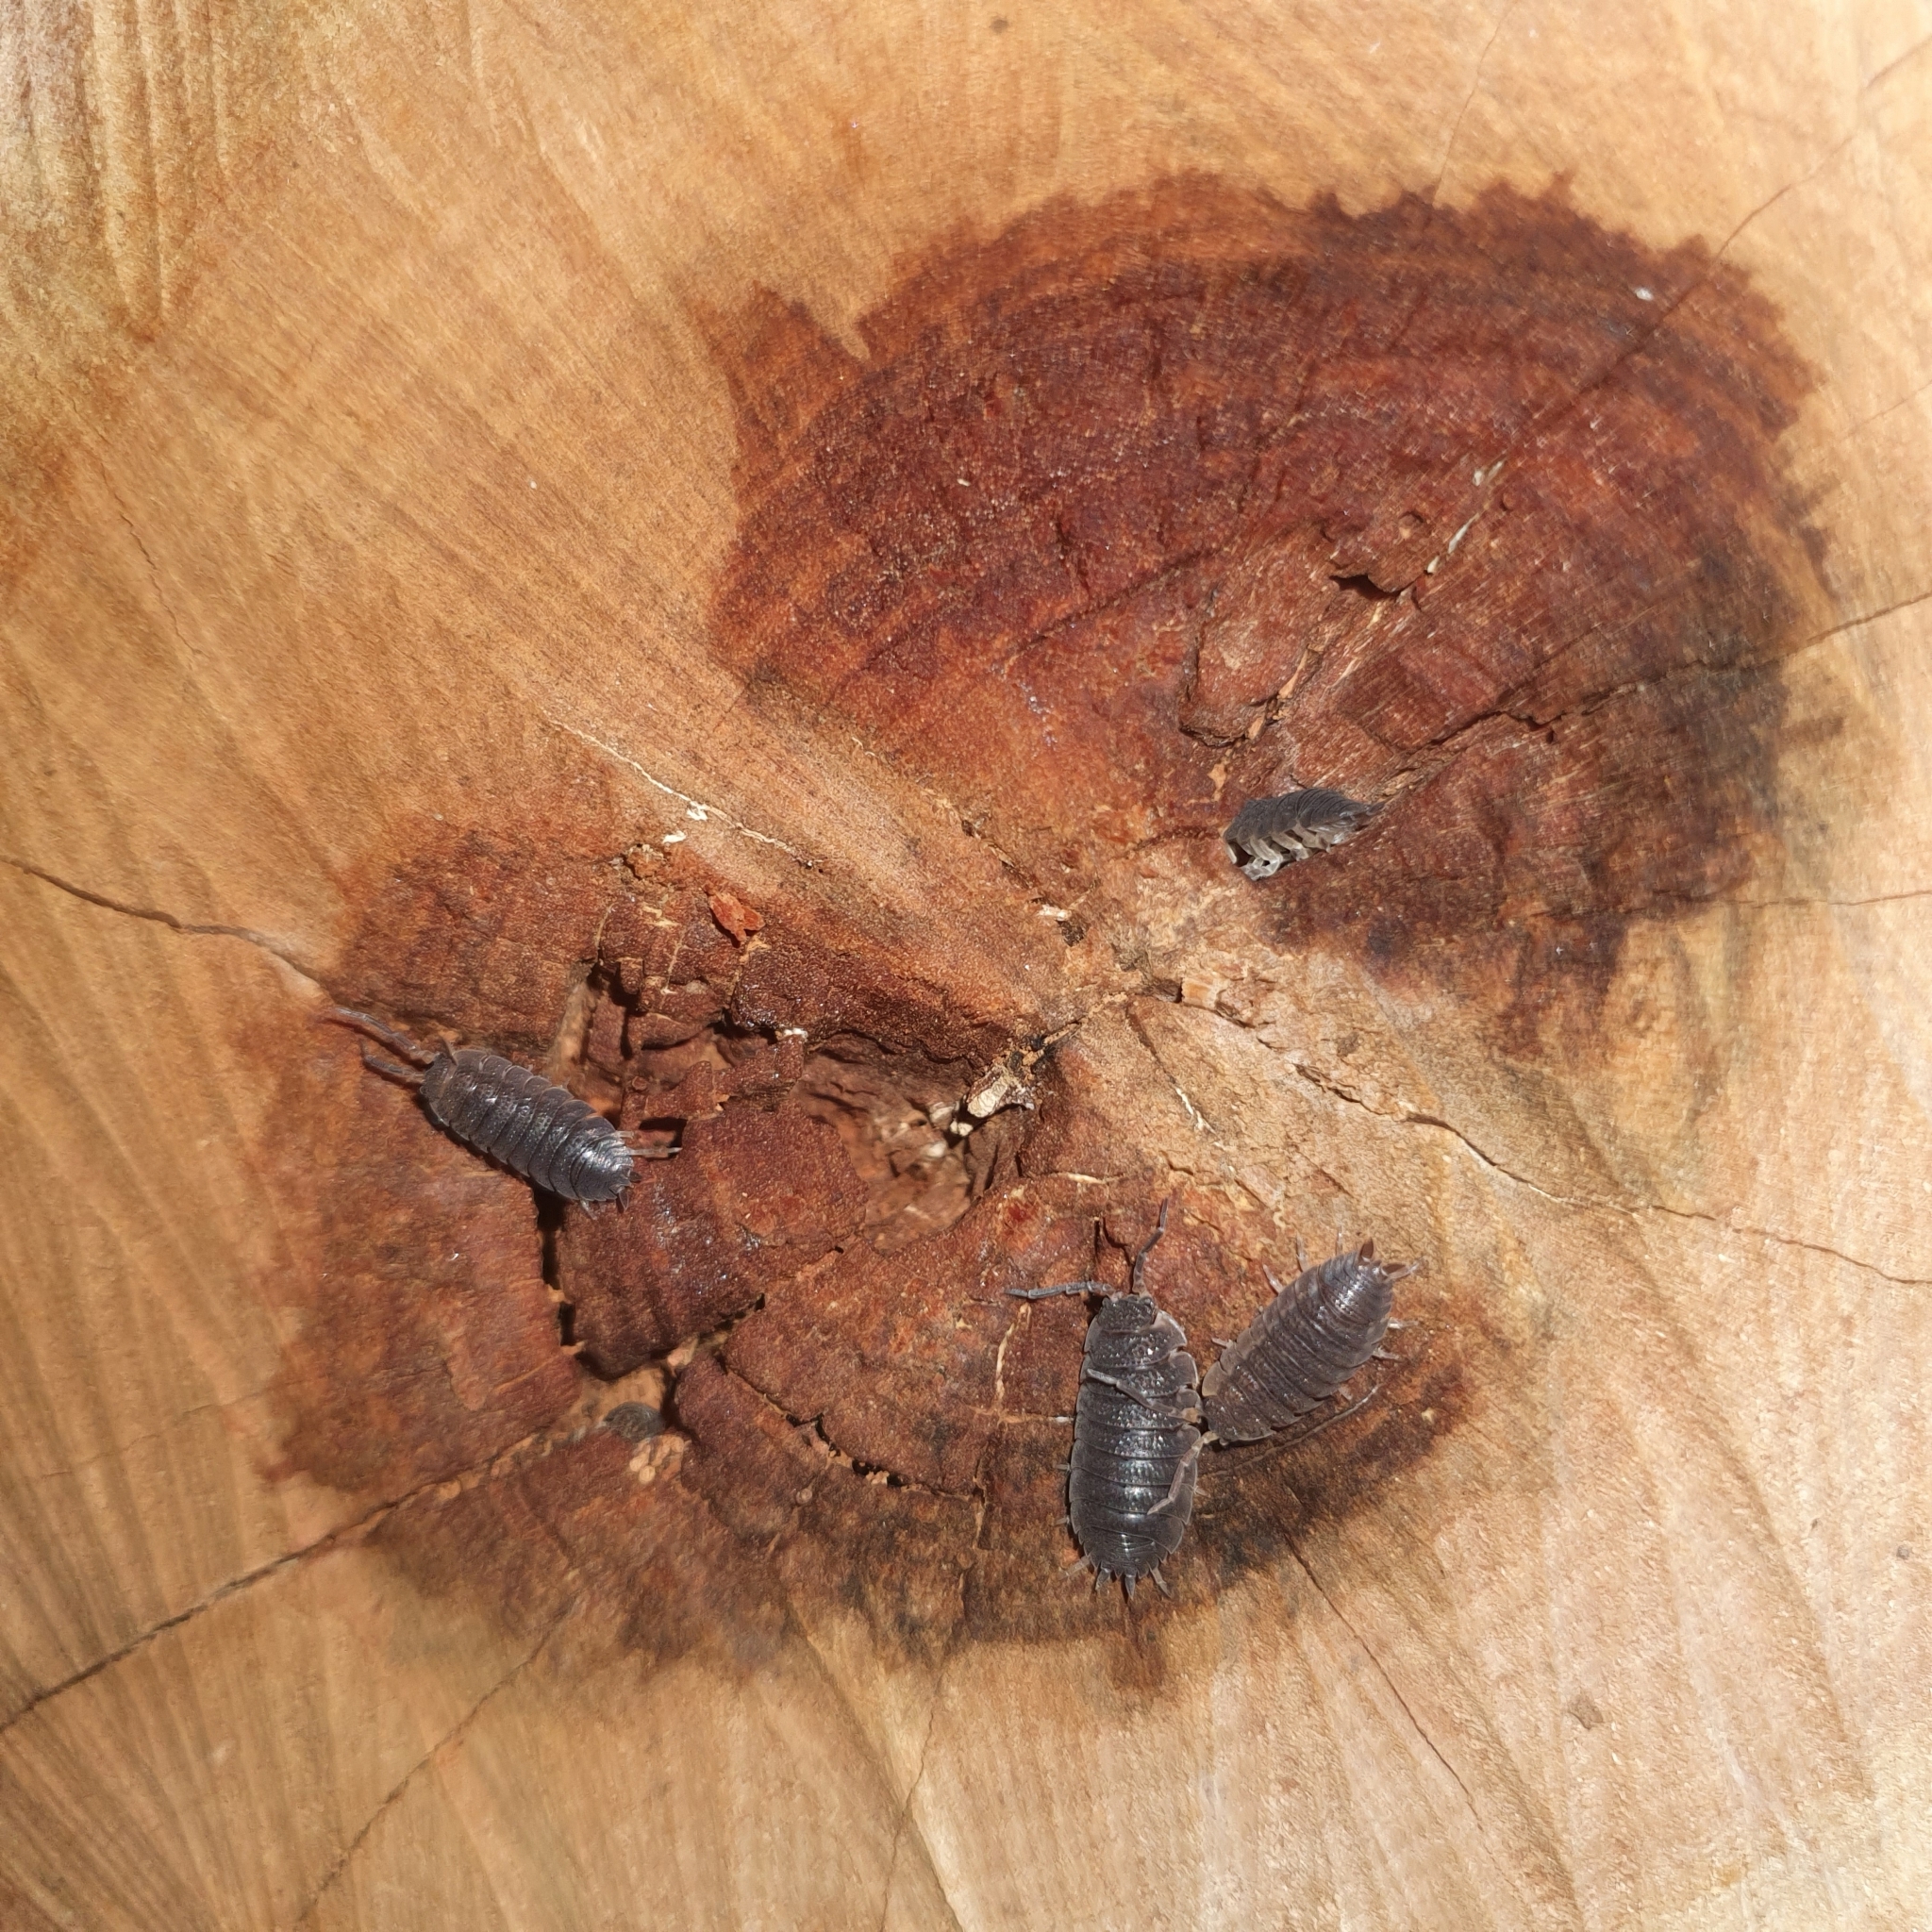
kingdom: Animalia
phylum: Arthropoda
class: Malacostraca
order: Isopoda
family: Porcellionidae
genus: Porcellio
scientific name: Porcellio scaber
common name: Common rough woodlouse
